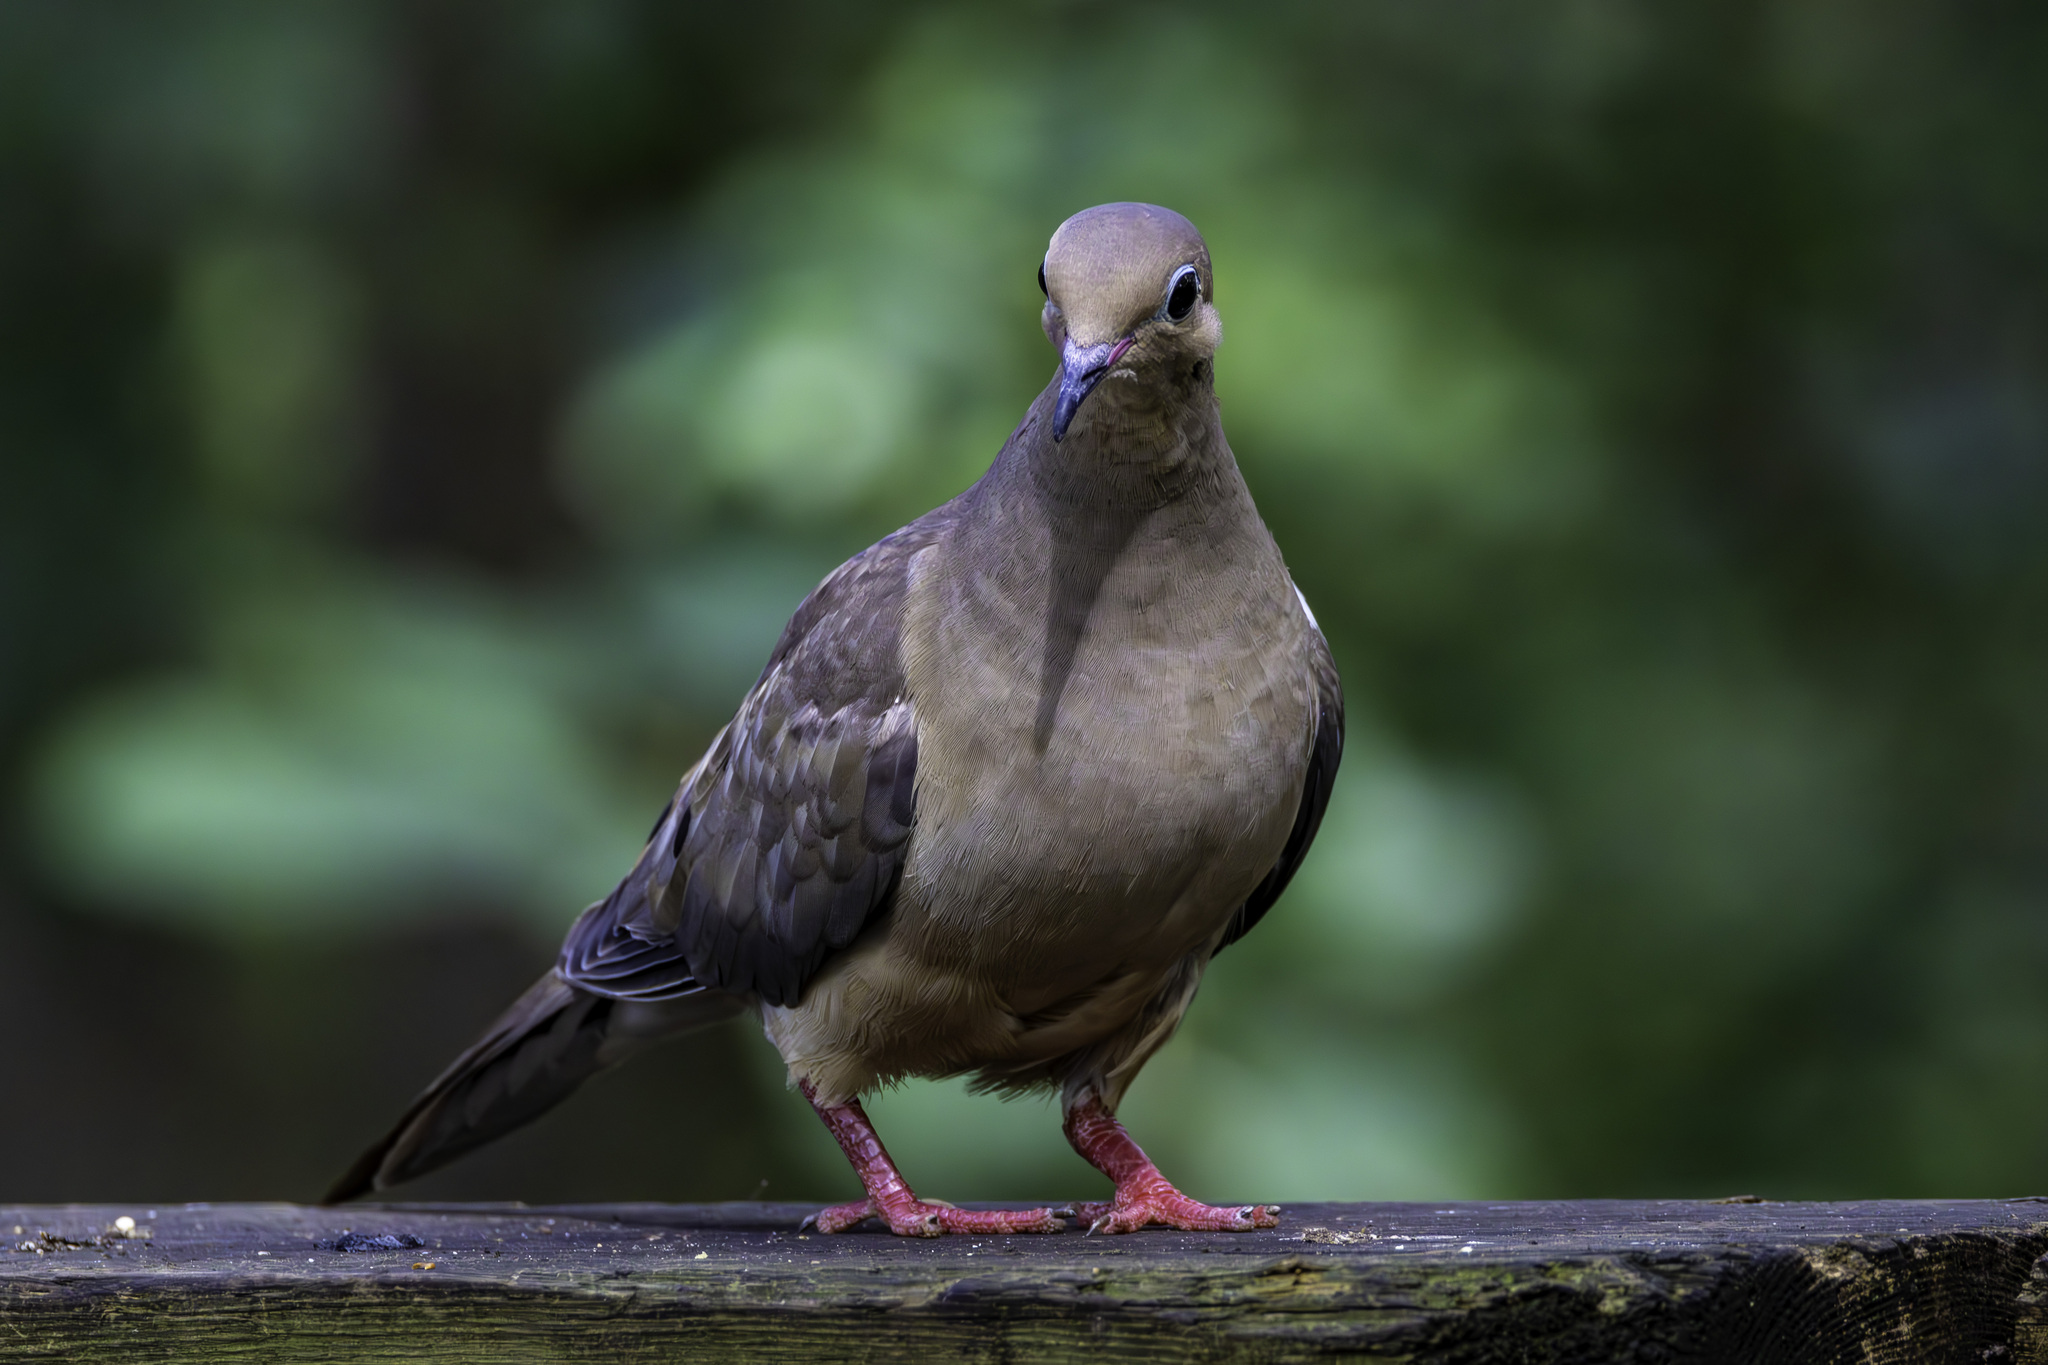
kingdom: Animalia
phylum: Chordata
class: Aves
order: Columbiformes
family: Columbidae
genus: Zenaida
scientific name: Zenaida macroura
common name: Mourning dove
